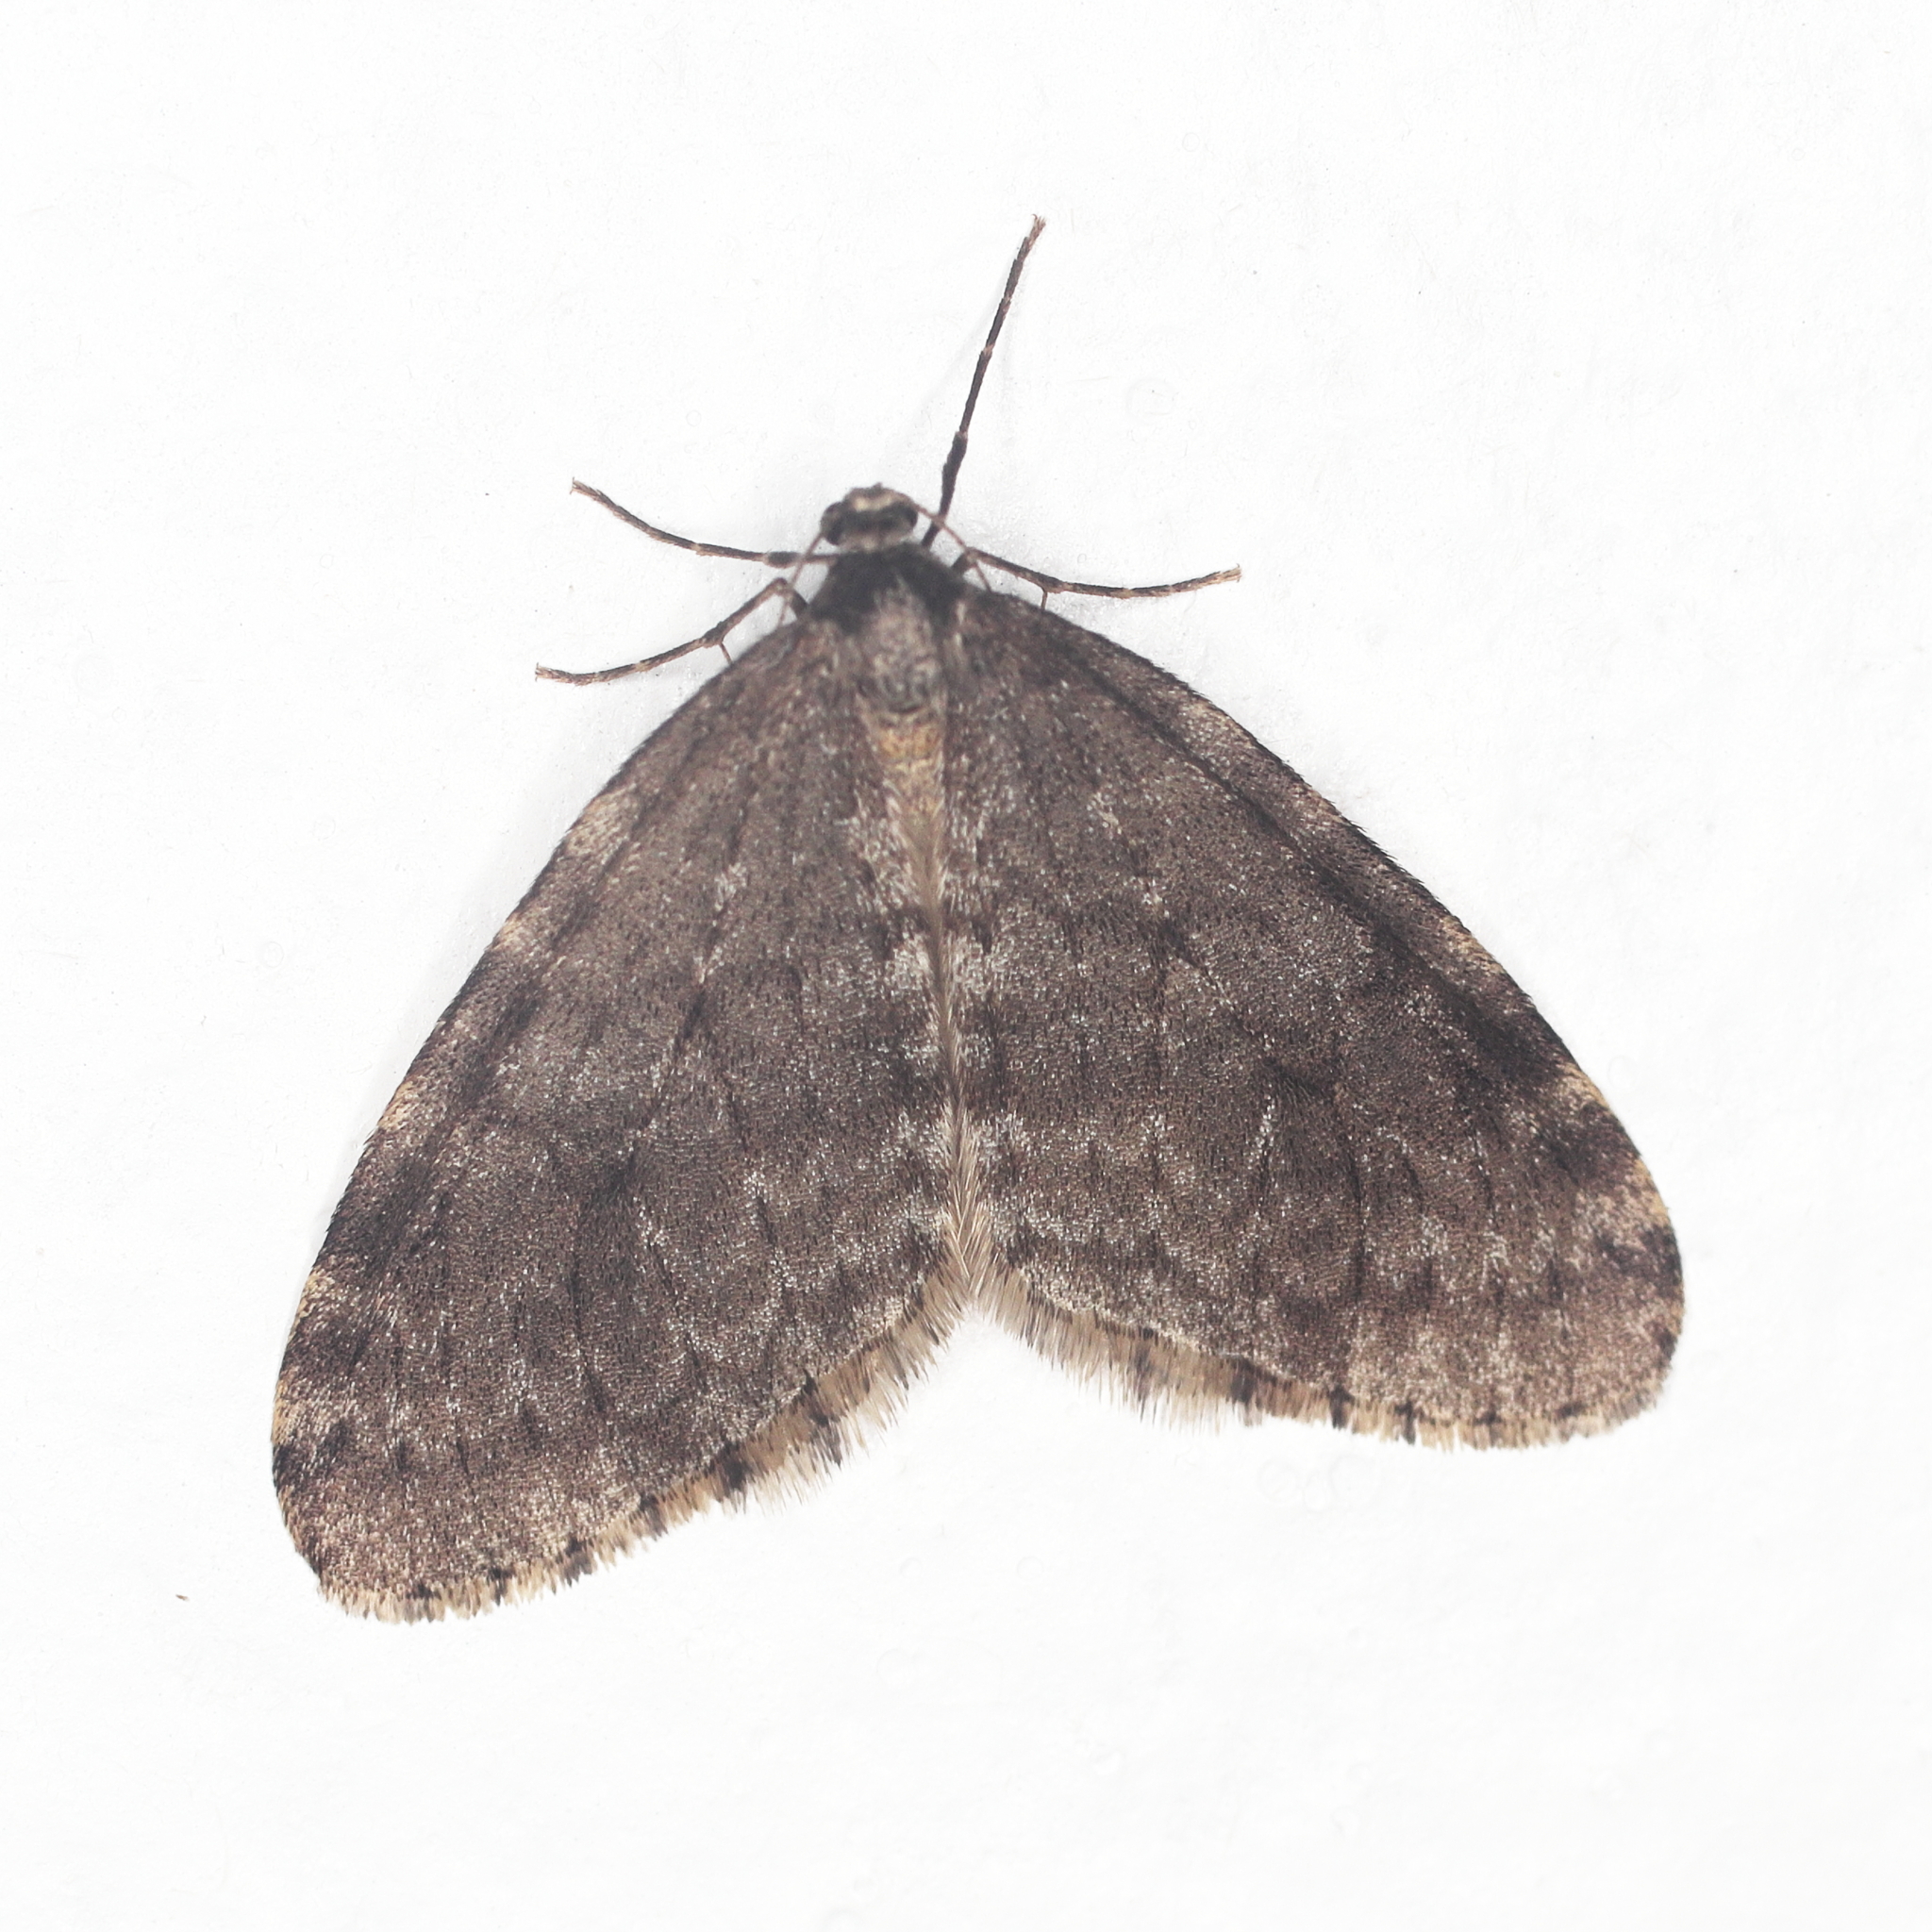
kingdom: Animalia
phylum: Arthropoda
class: Insecta
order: Lepidoptera
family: Geometridae
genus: Operophtera
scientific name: Operophtera occidentalis
